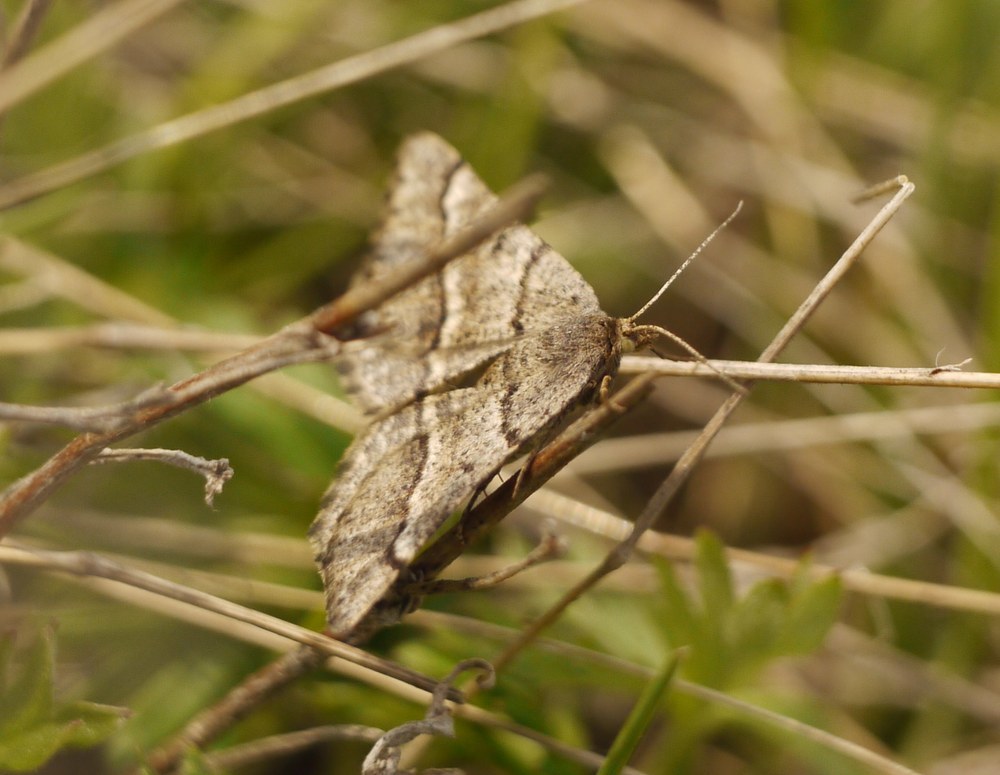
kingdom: Animalia
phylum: Arthropoda
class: Insecta
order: Lepidoptera
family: Geometridae
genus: Tephrina
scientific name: Tephrina murinaria
